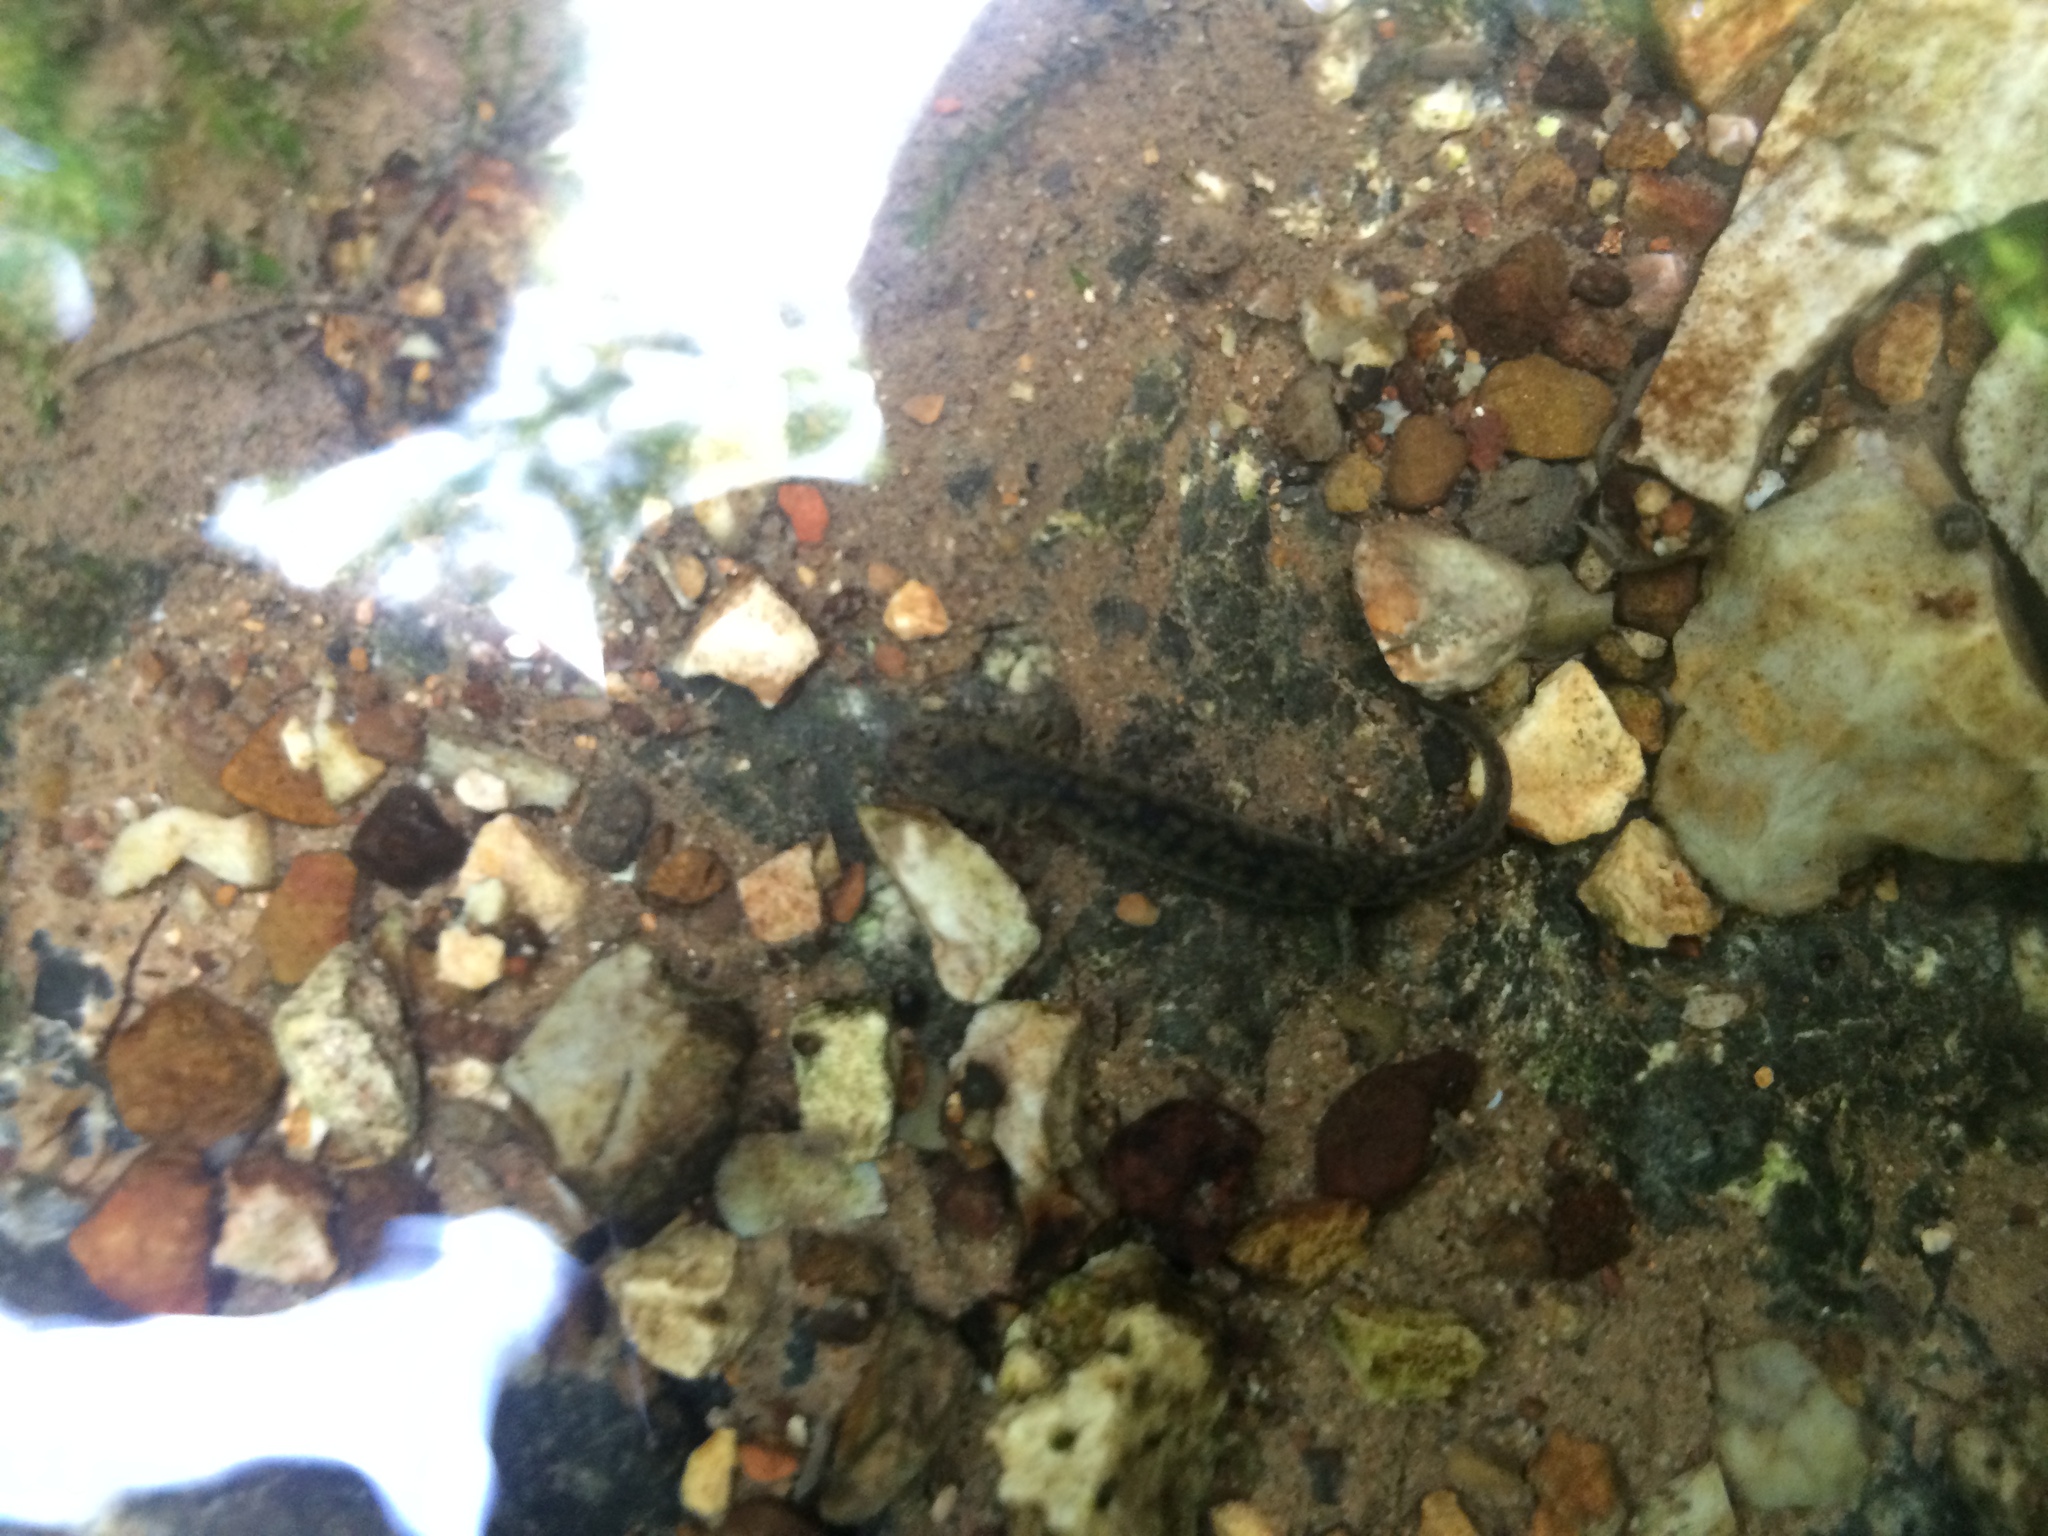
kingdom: Animalia
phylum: Chordata
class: Amphibia
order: Caudata
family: Plethodontidae
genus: Eurycea
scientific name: Eurycea tynerensis
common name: Oklahoma salamander
